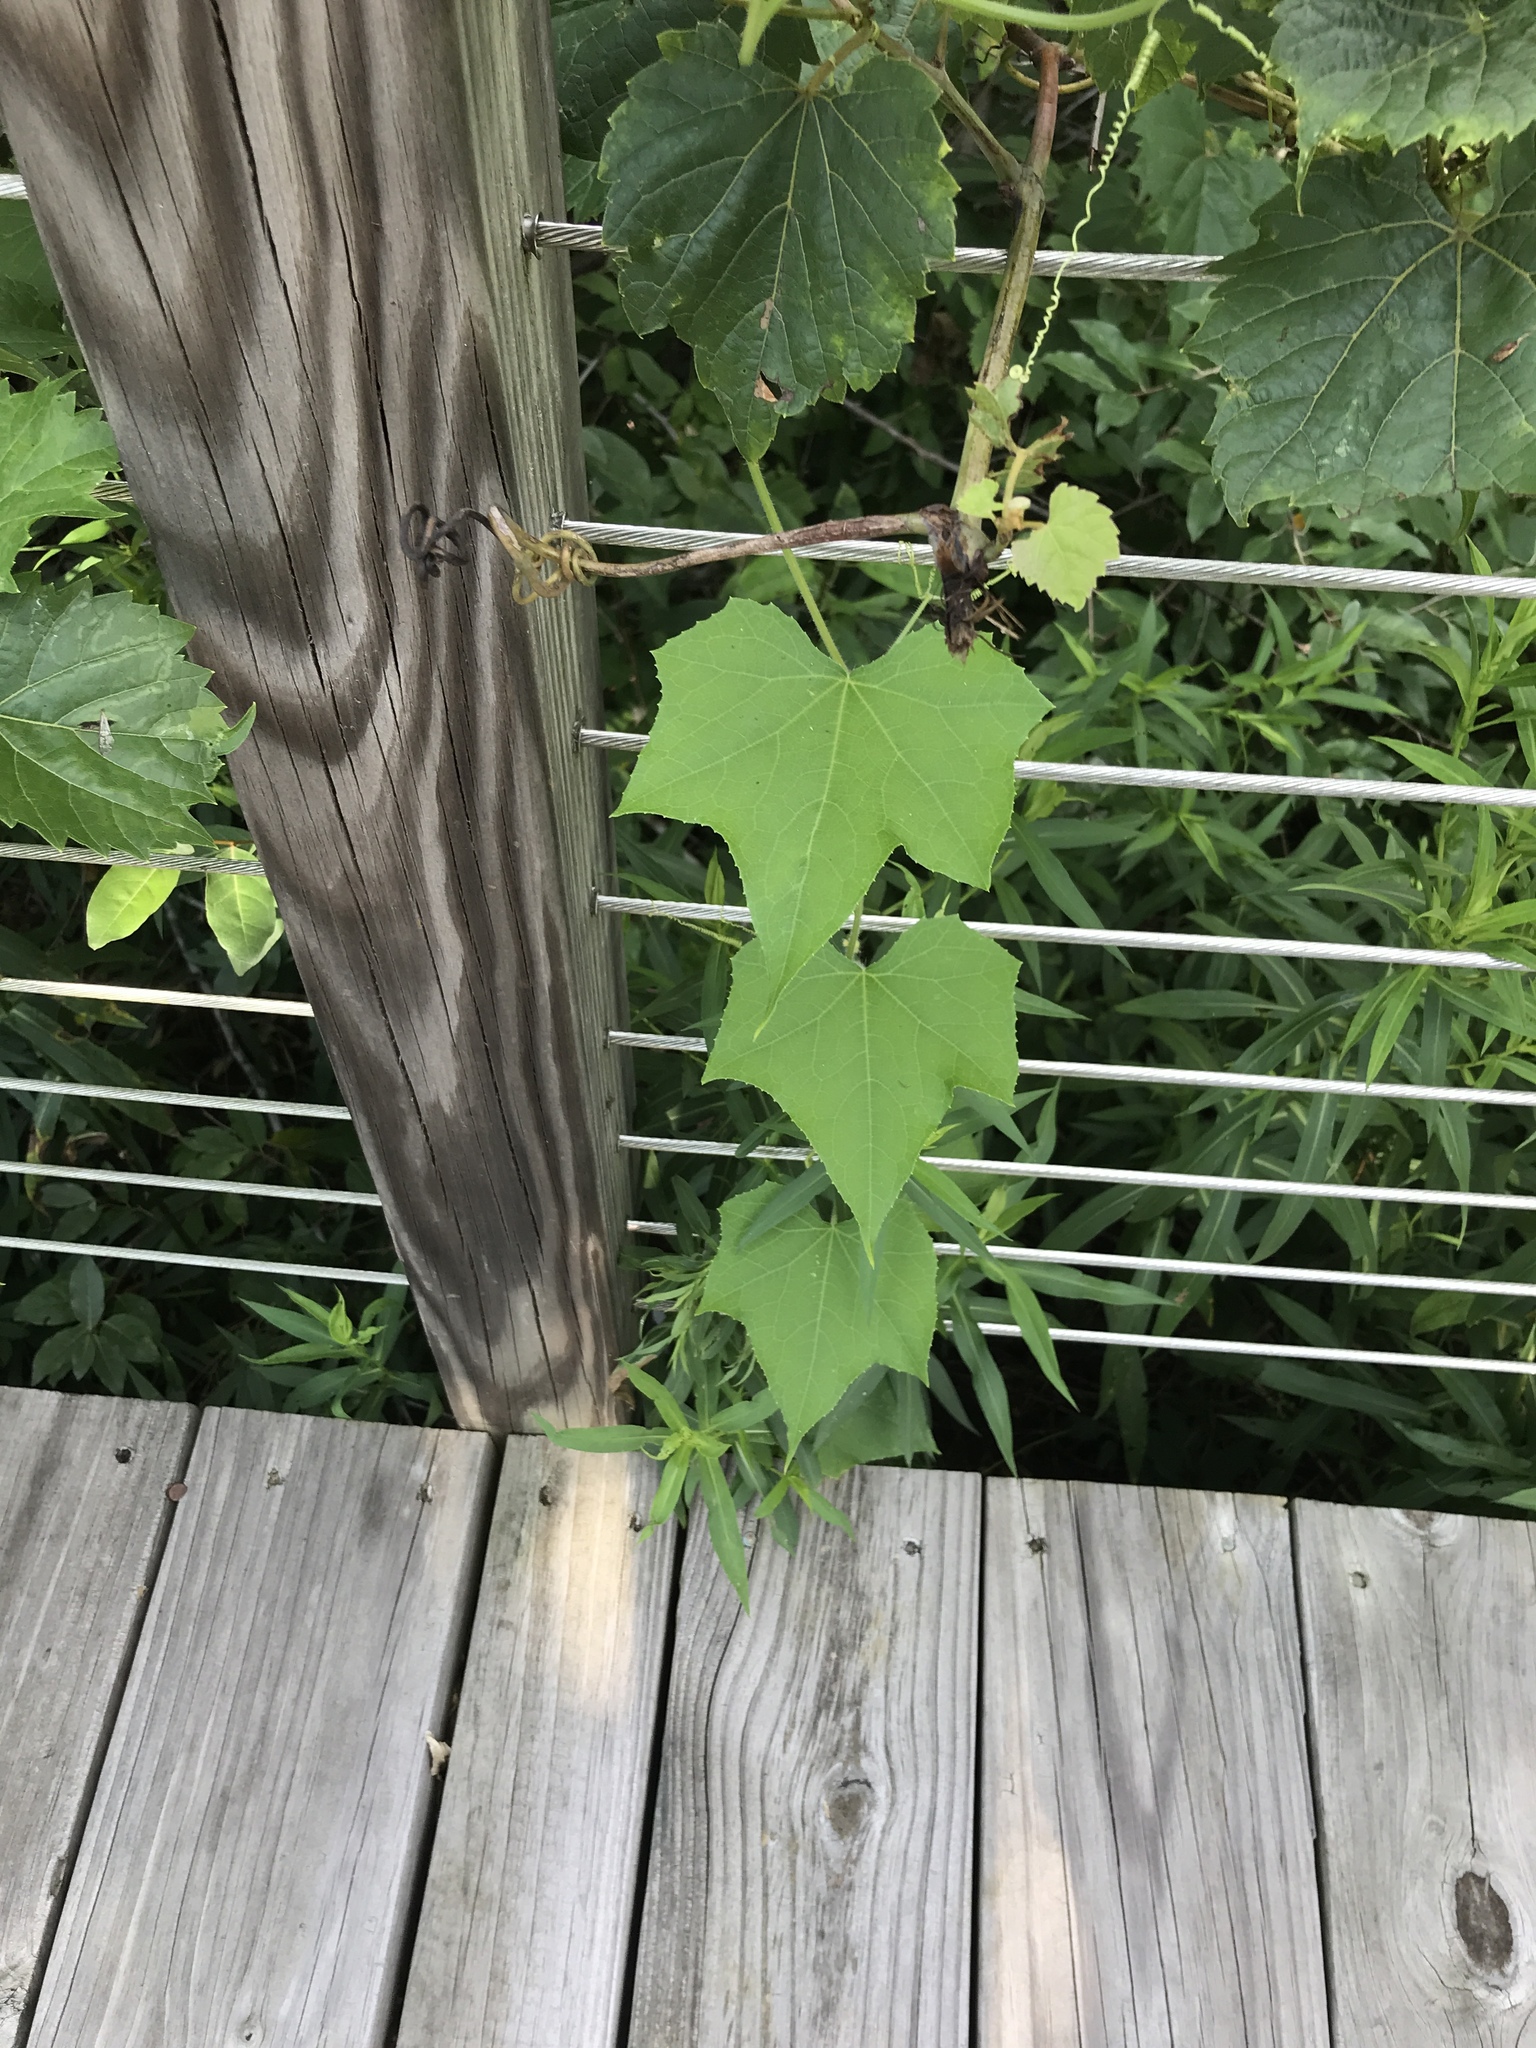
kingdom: Plantae
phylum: Tracheophyta
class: Magnoliopsida
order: Cucurbitales
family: Cucurbitaceae
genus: Echinocystis
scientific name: Echinocystis lobata
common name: Wild cucumber
